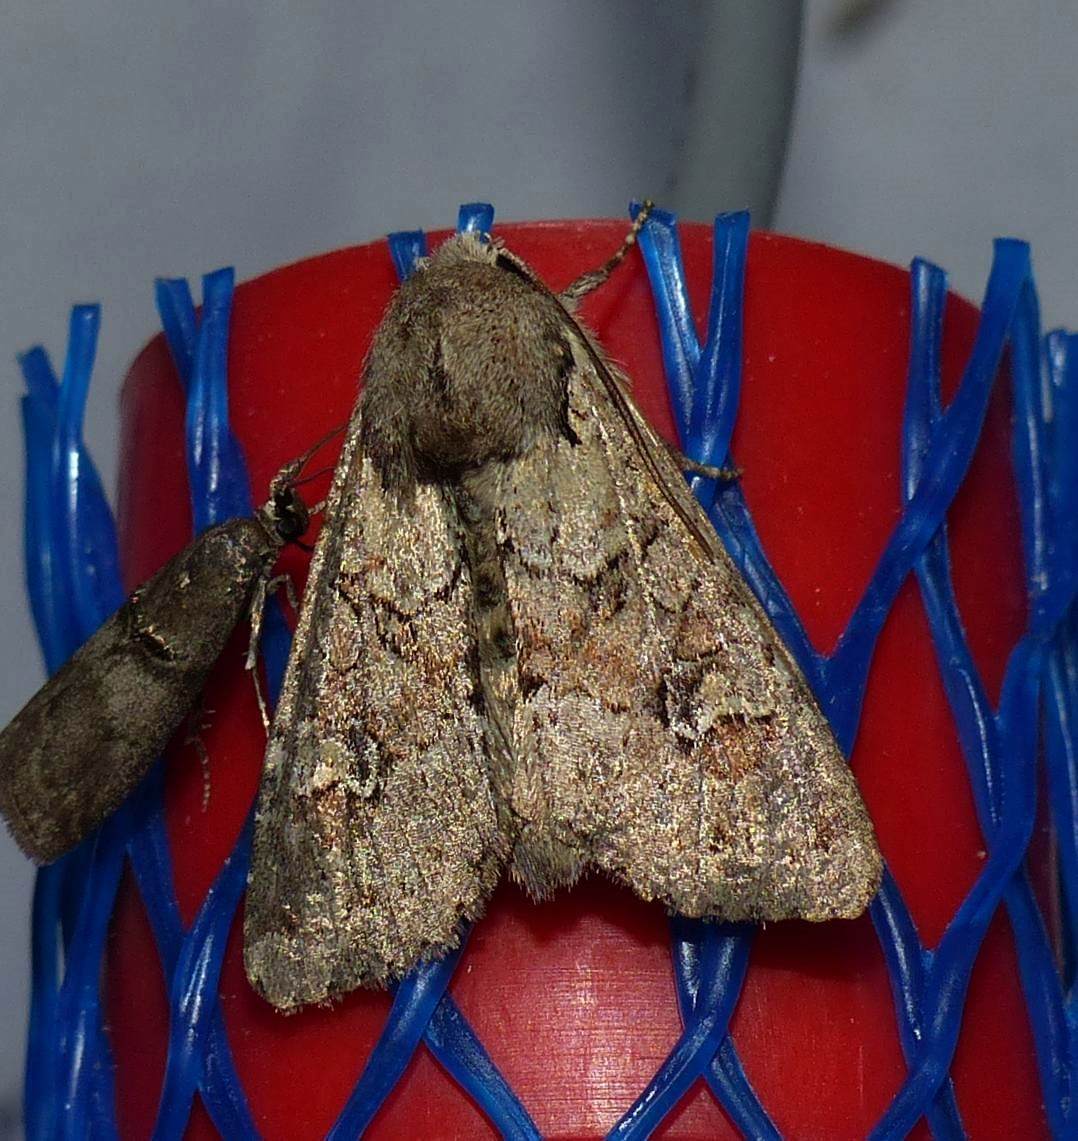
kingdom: Animalia
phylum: Arthropoda
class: Insecta
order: Lepidoptera
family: Noctuidae
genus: Apamea
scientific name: Apamea sordens
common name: Rustic shoulder-knot
